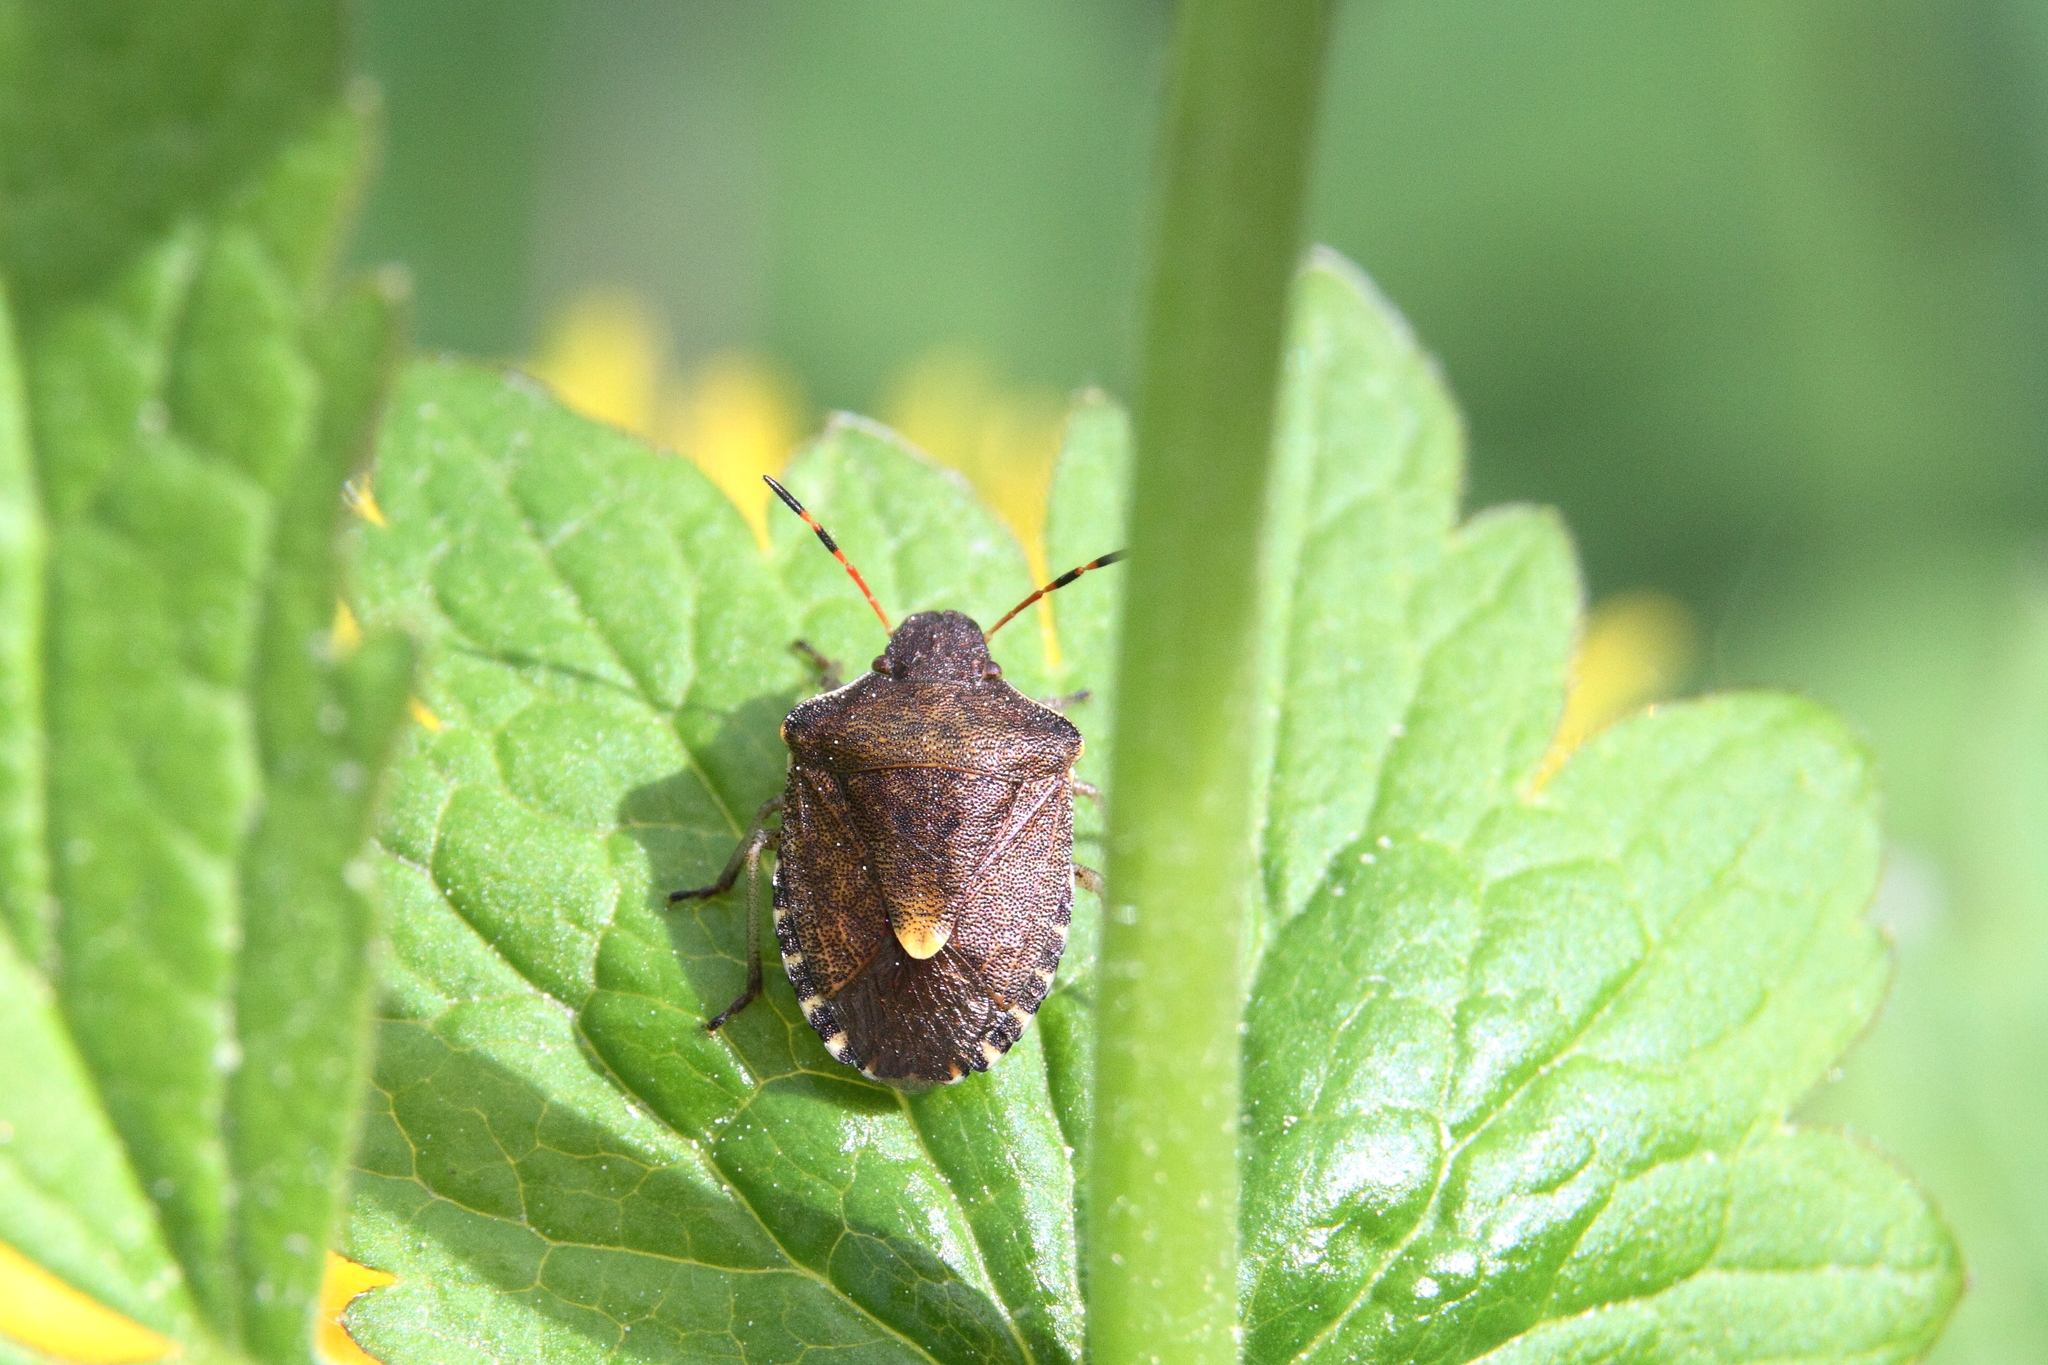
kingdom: Animalia
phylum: Arthropoda
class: Insecta
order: Hemiptera
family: Pentatomidae
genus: Holcostethus
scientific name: Holcostethus strictus
